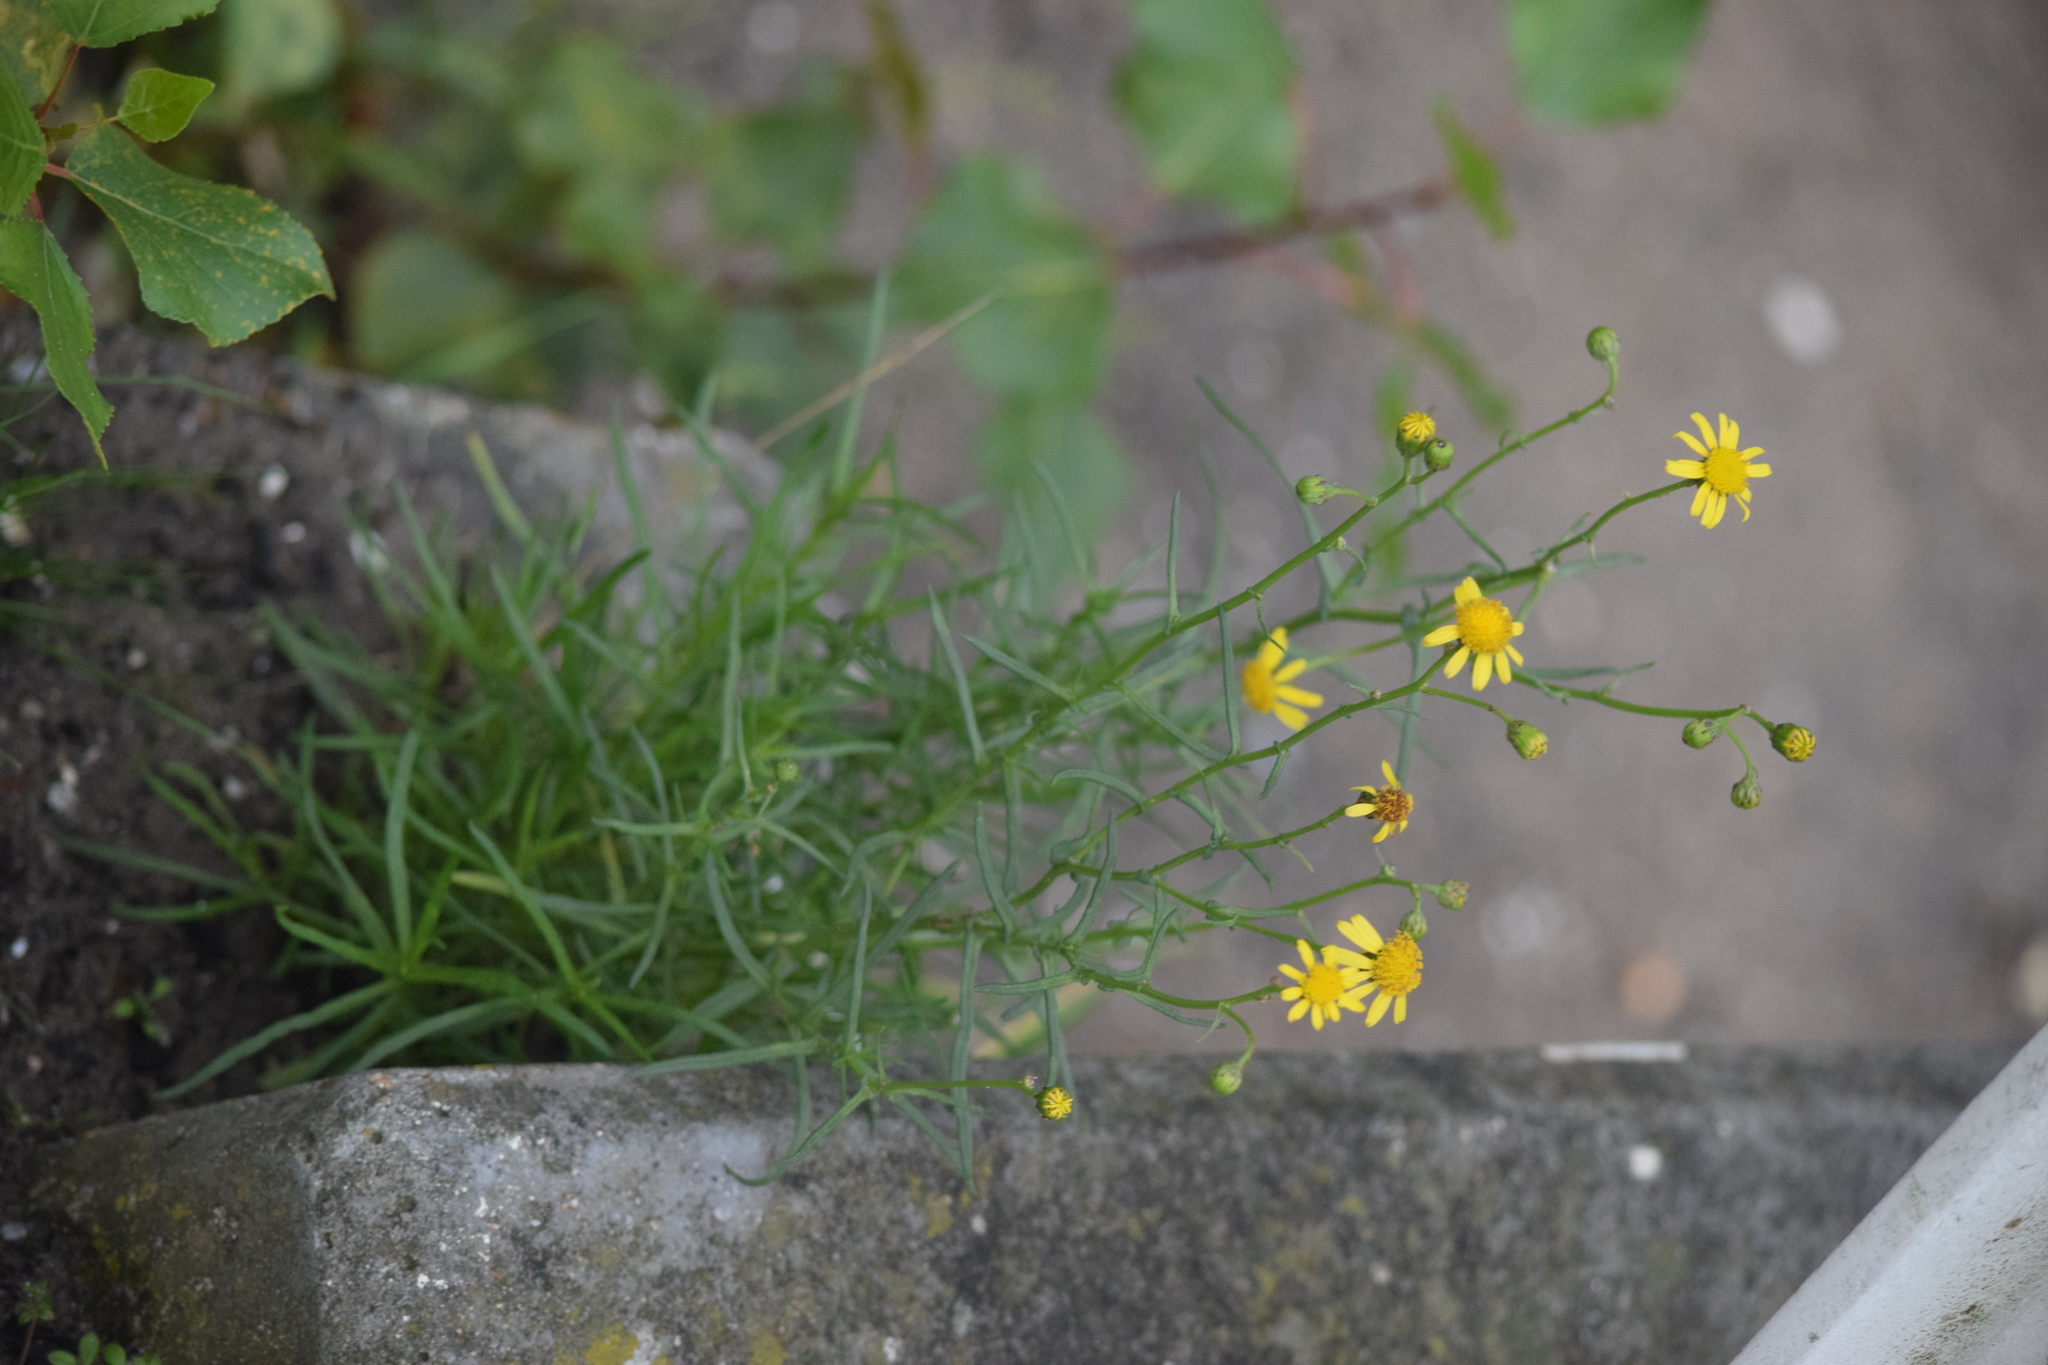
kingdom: Plantae
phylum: Tracheophyta
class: Magnoliopsida
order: Asterales
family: Asteraceae
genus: Senecio
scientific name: Senecio inaequidens
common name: Narrow-leaved ragwort
